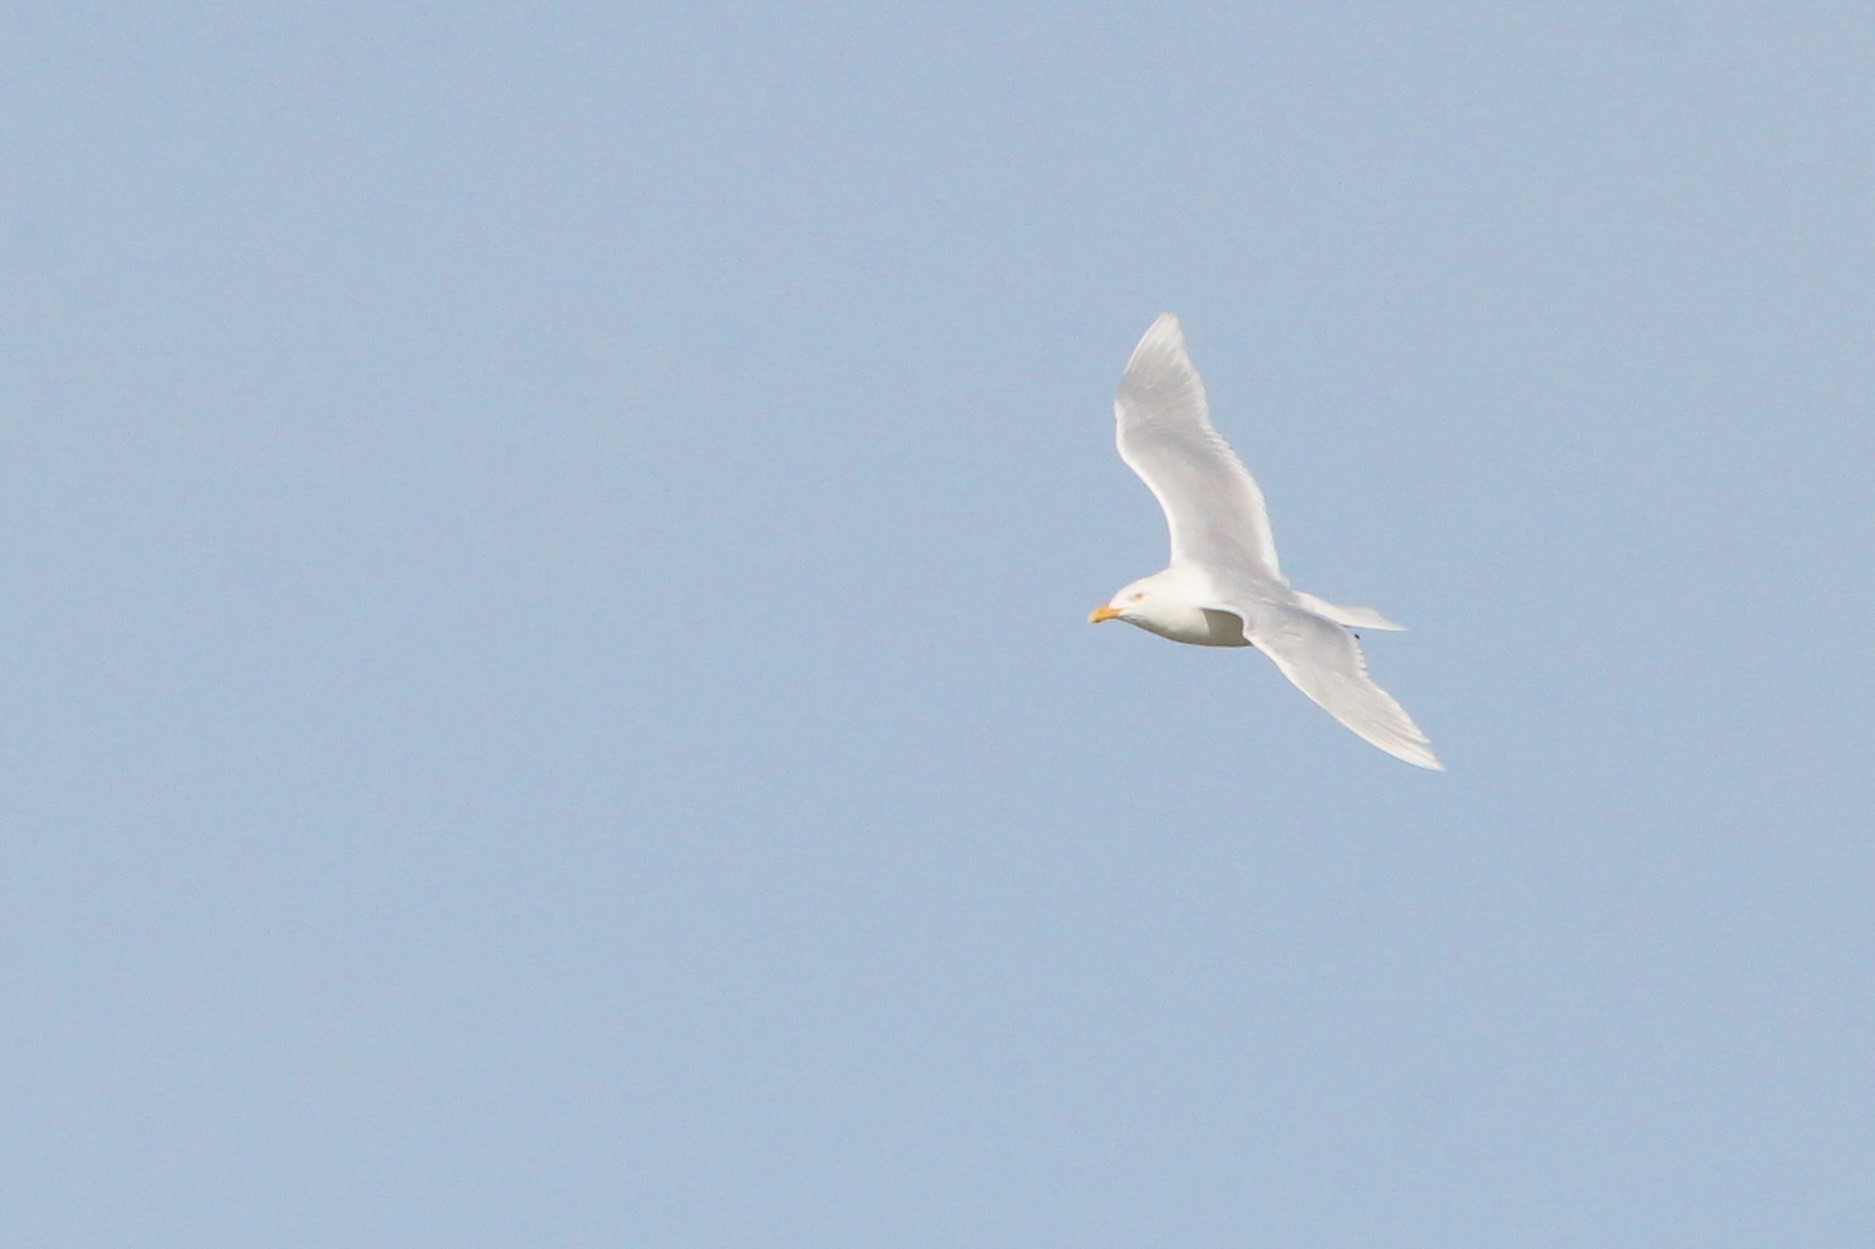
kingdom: Animalia
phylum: Chordata
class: Aves
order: Charadriiformes
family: Laridae
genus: Larus
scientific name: Larus hyperboreus
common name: Glaucous gull
